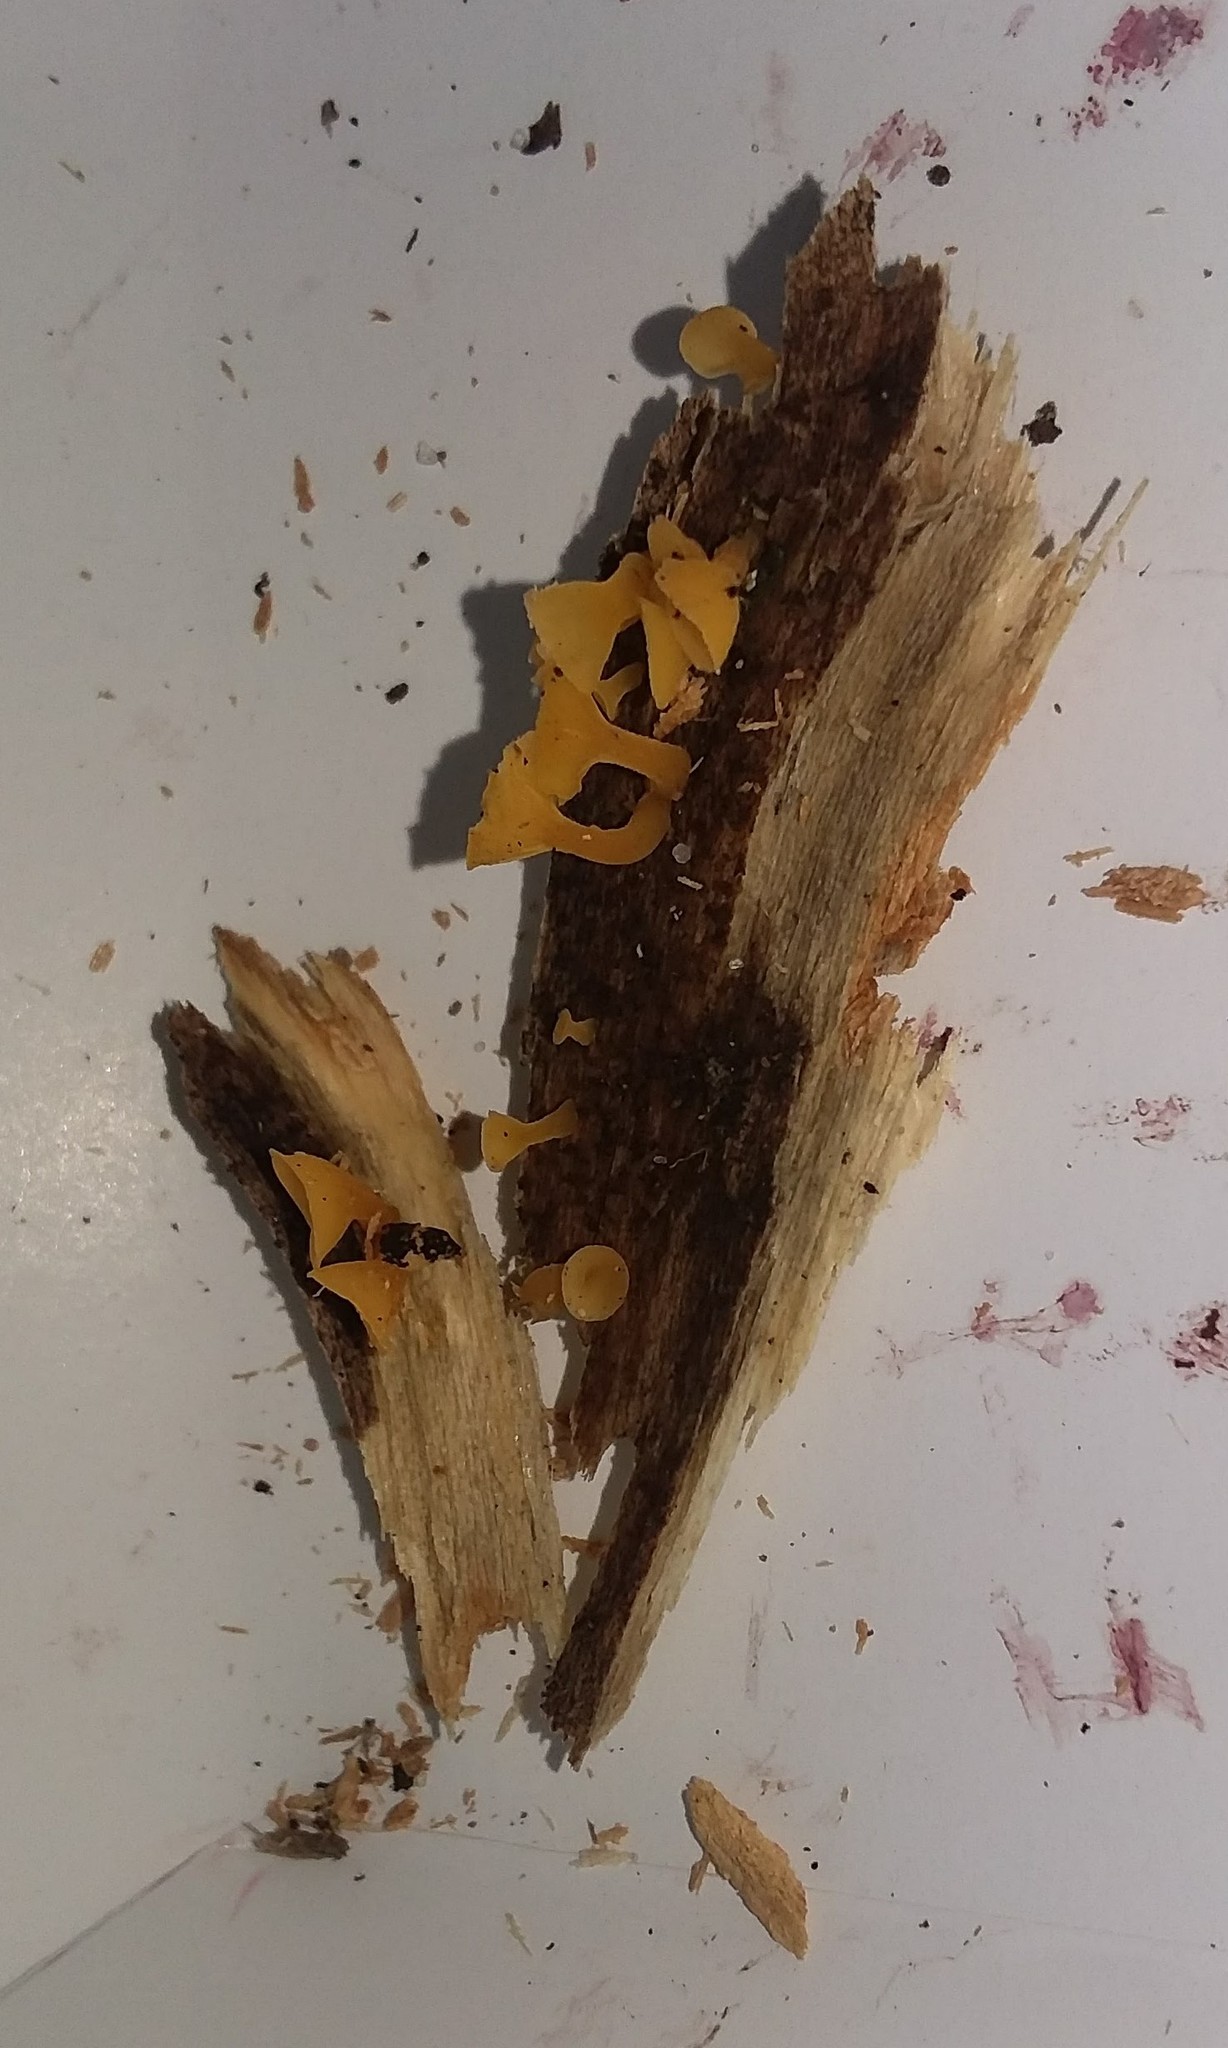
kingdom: Fungi
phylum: Basidiomycota
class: Dacrymycetes
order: Dacrymycetales
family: Dacrymycetaceae
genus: Guepiniopsis
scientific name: Guepiniopsis buccina
